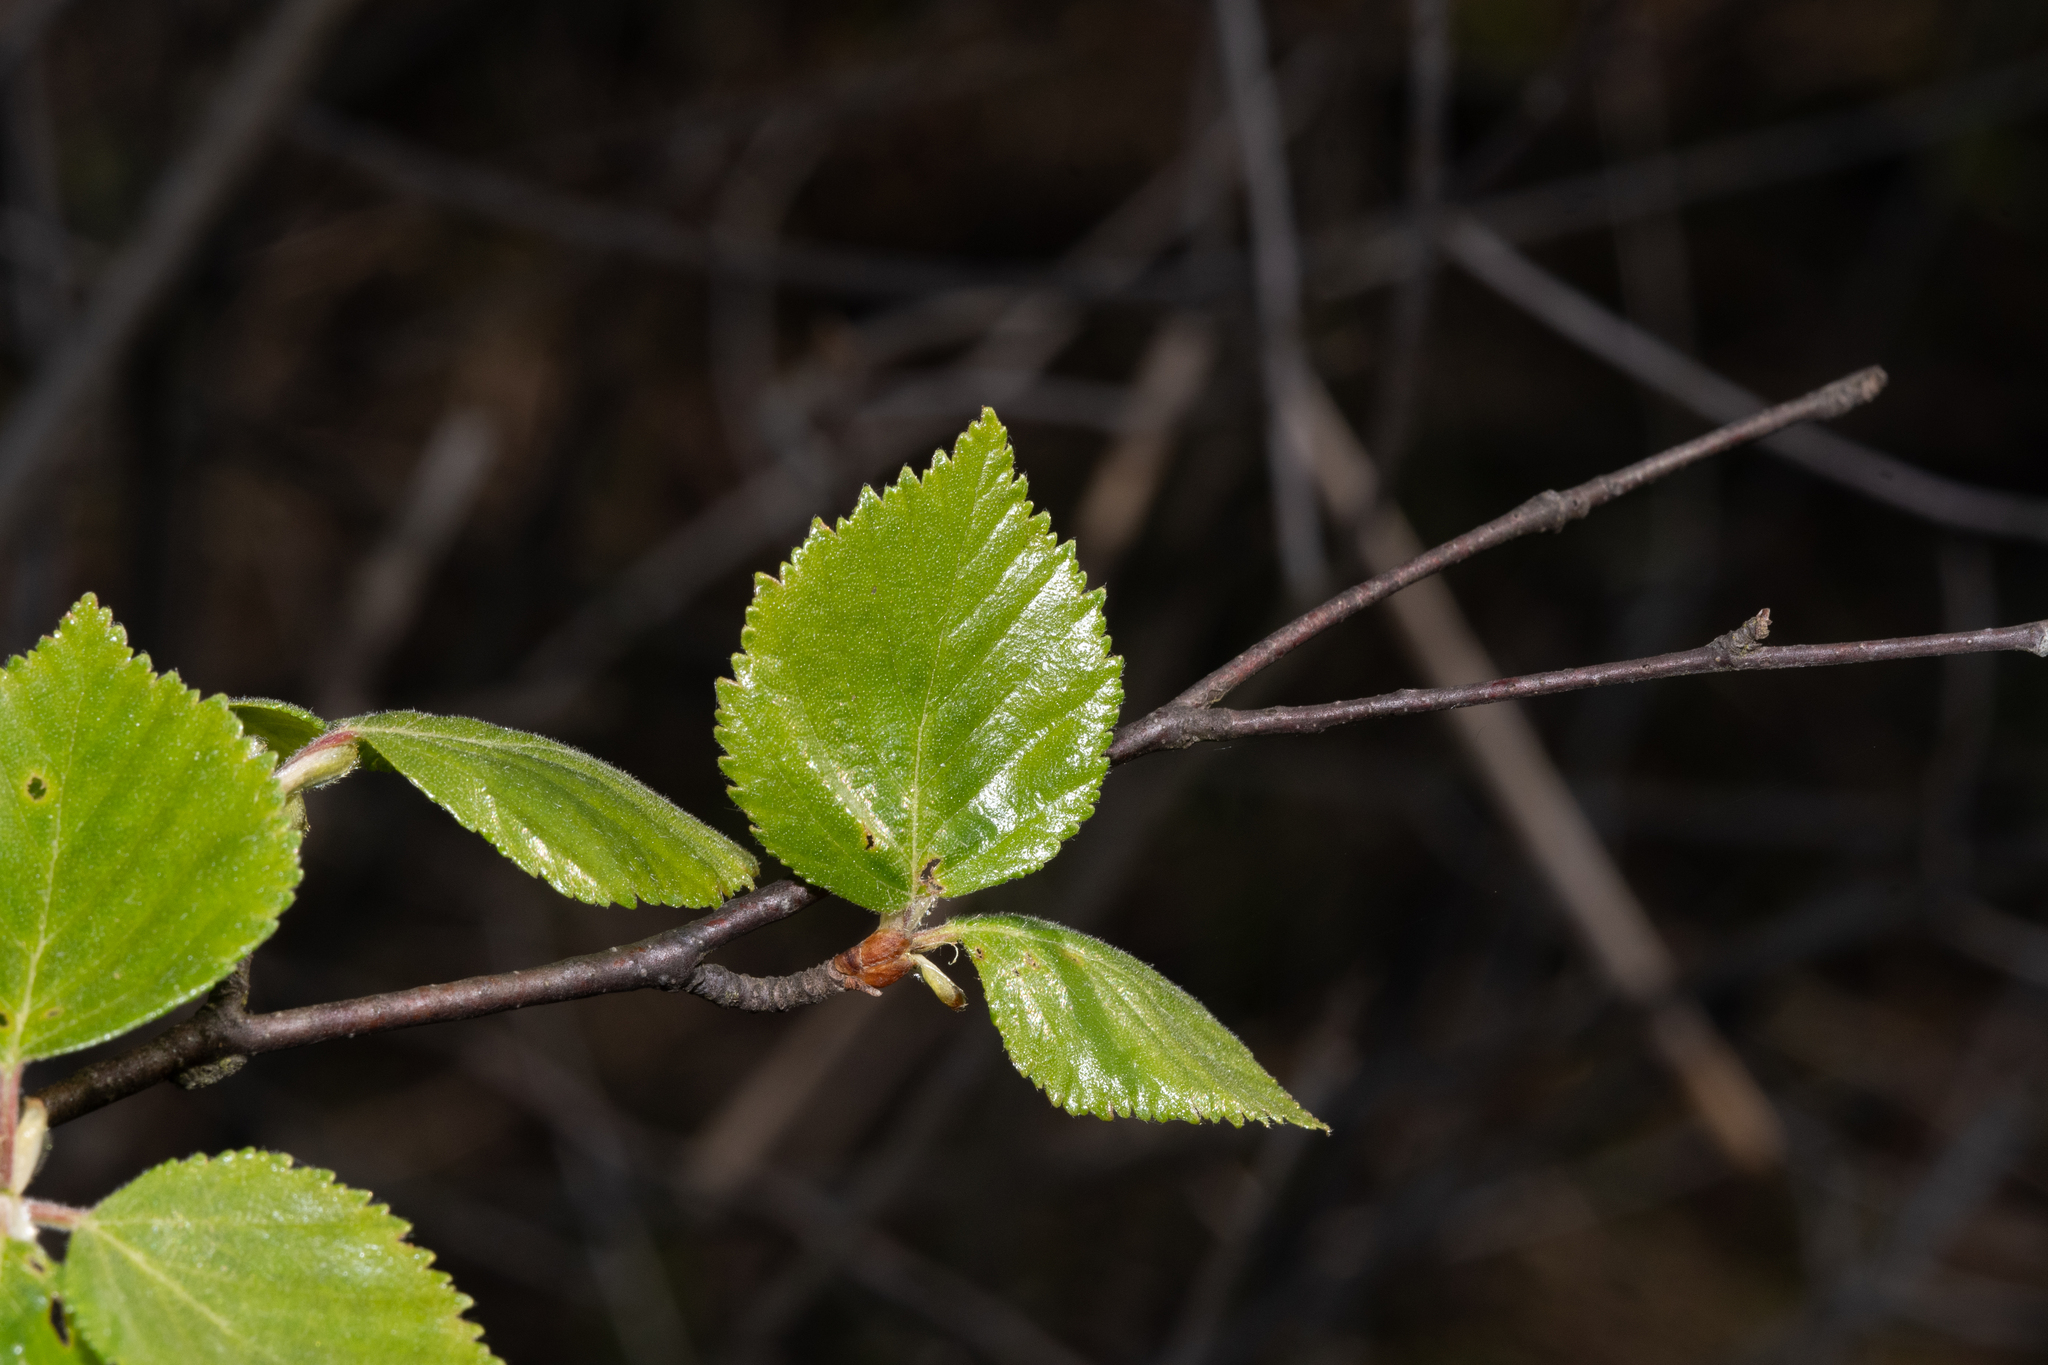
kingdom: Plantae
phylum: Tracheophyta
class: Magnoliopsida
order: Fagales
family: Betulaceae
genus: Betula
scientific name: Betula pubescens
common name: Downy birch
